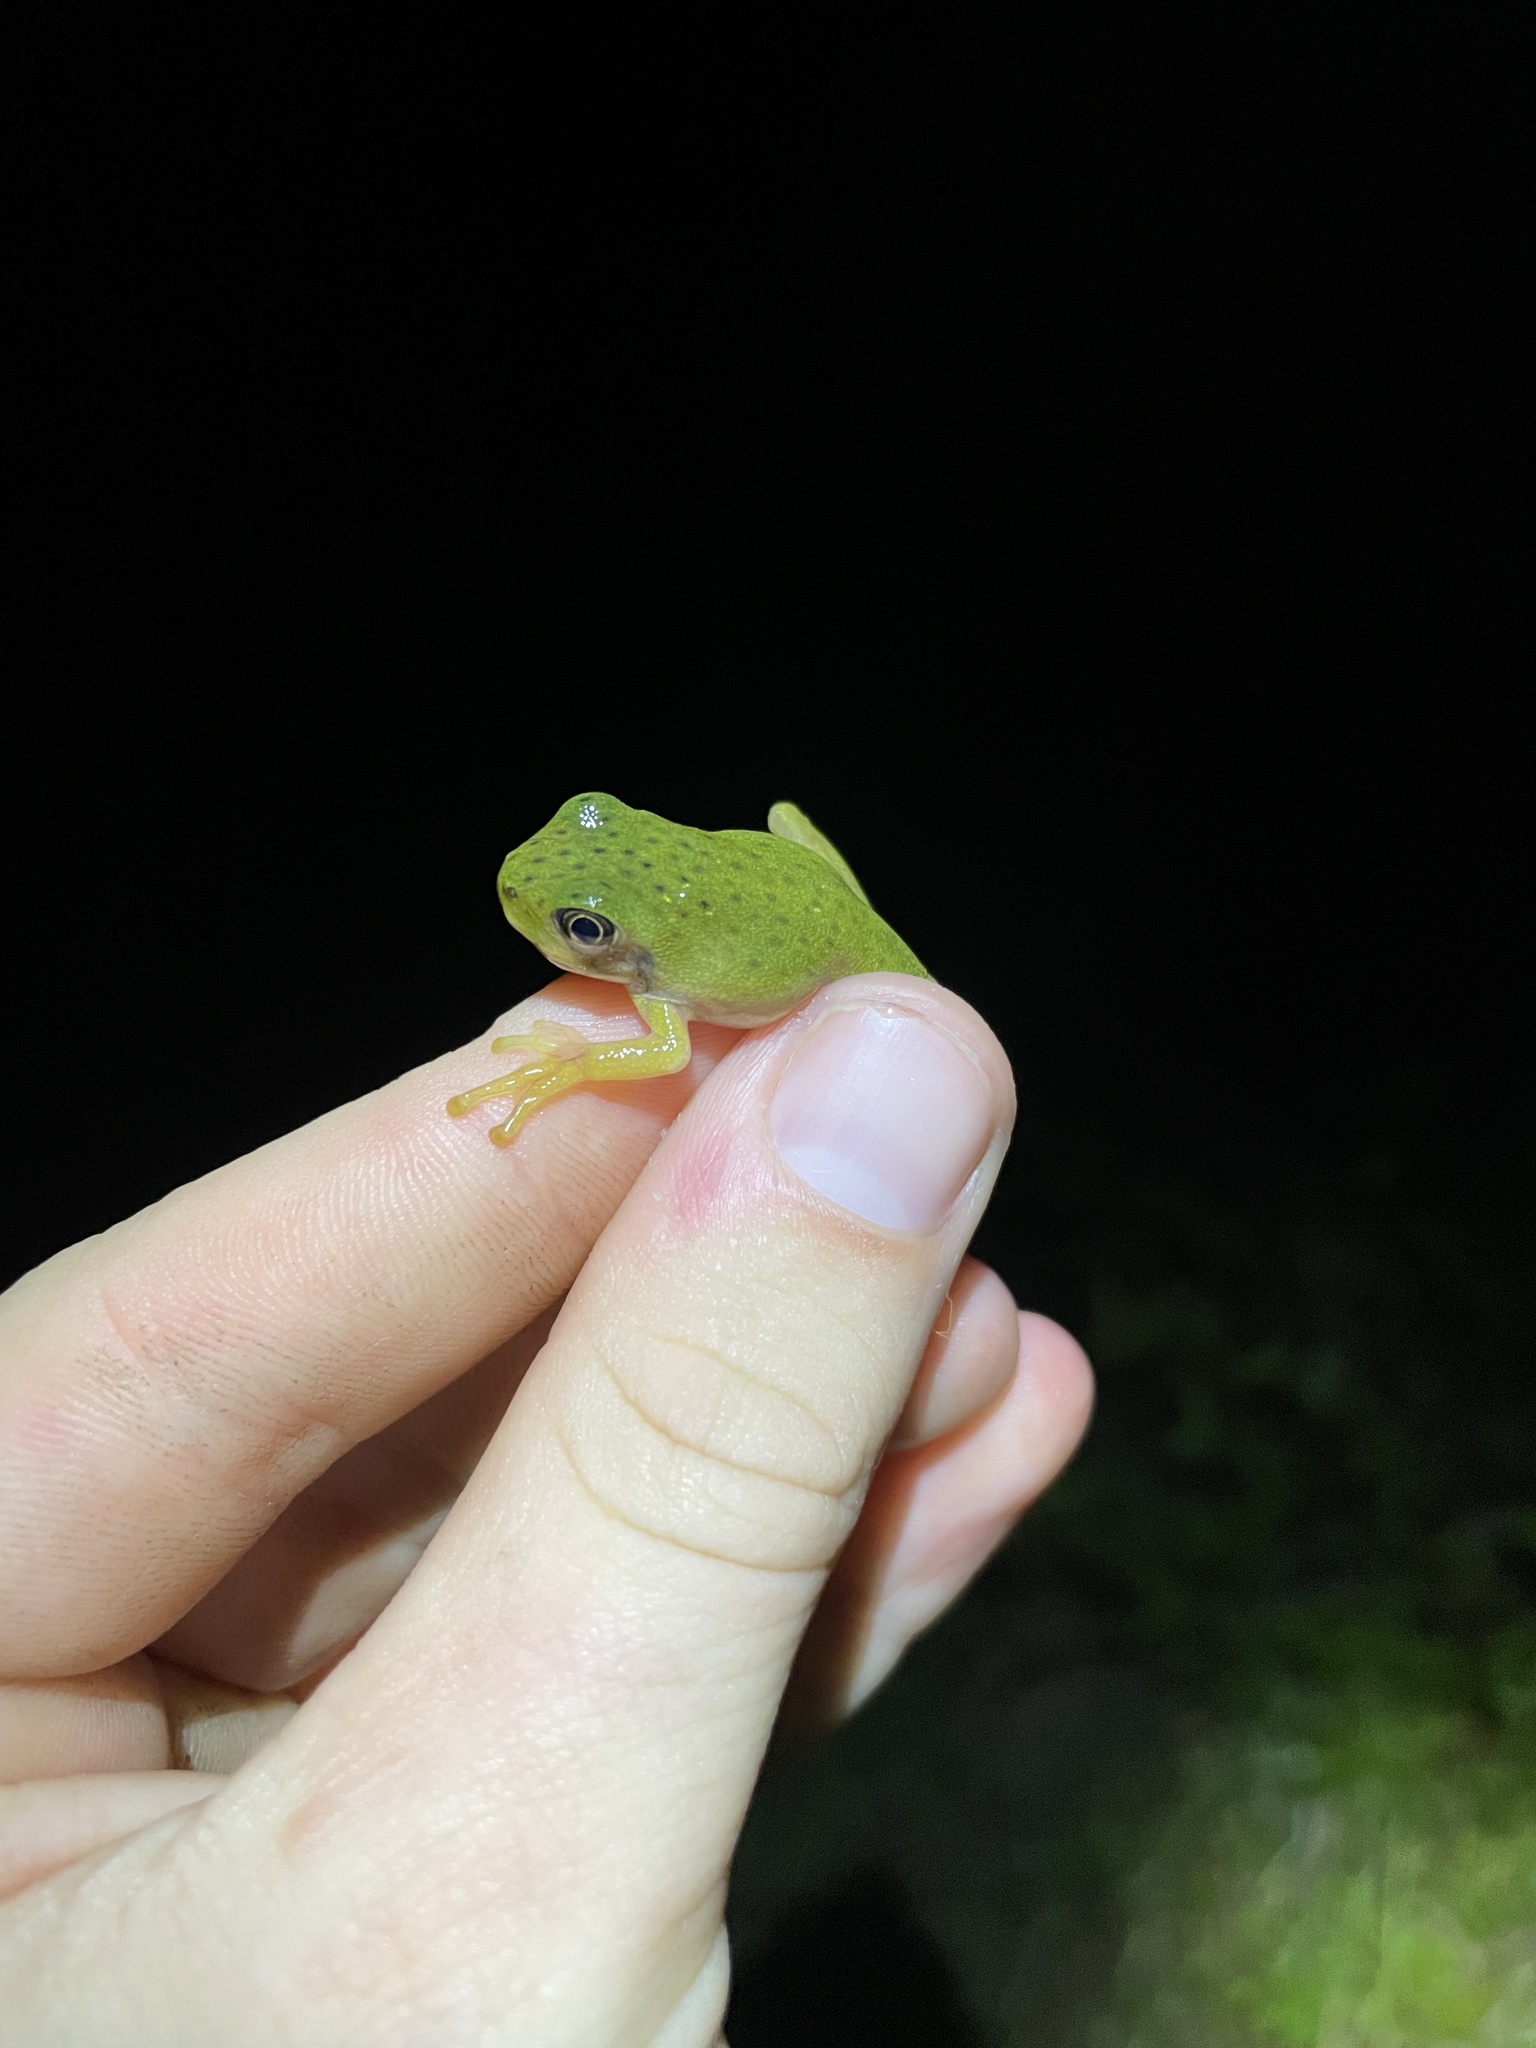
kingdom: Animalia
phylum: Chordata
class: Amphibia
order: Anura
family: Hylidae
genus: Dryophytes
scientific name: Dryophytes gratiosus
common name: Barking treefrog
